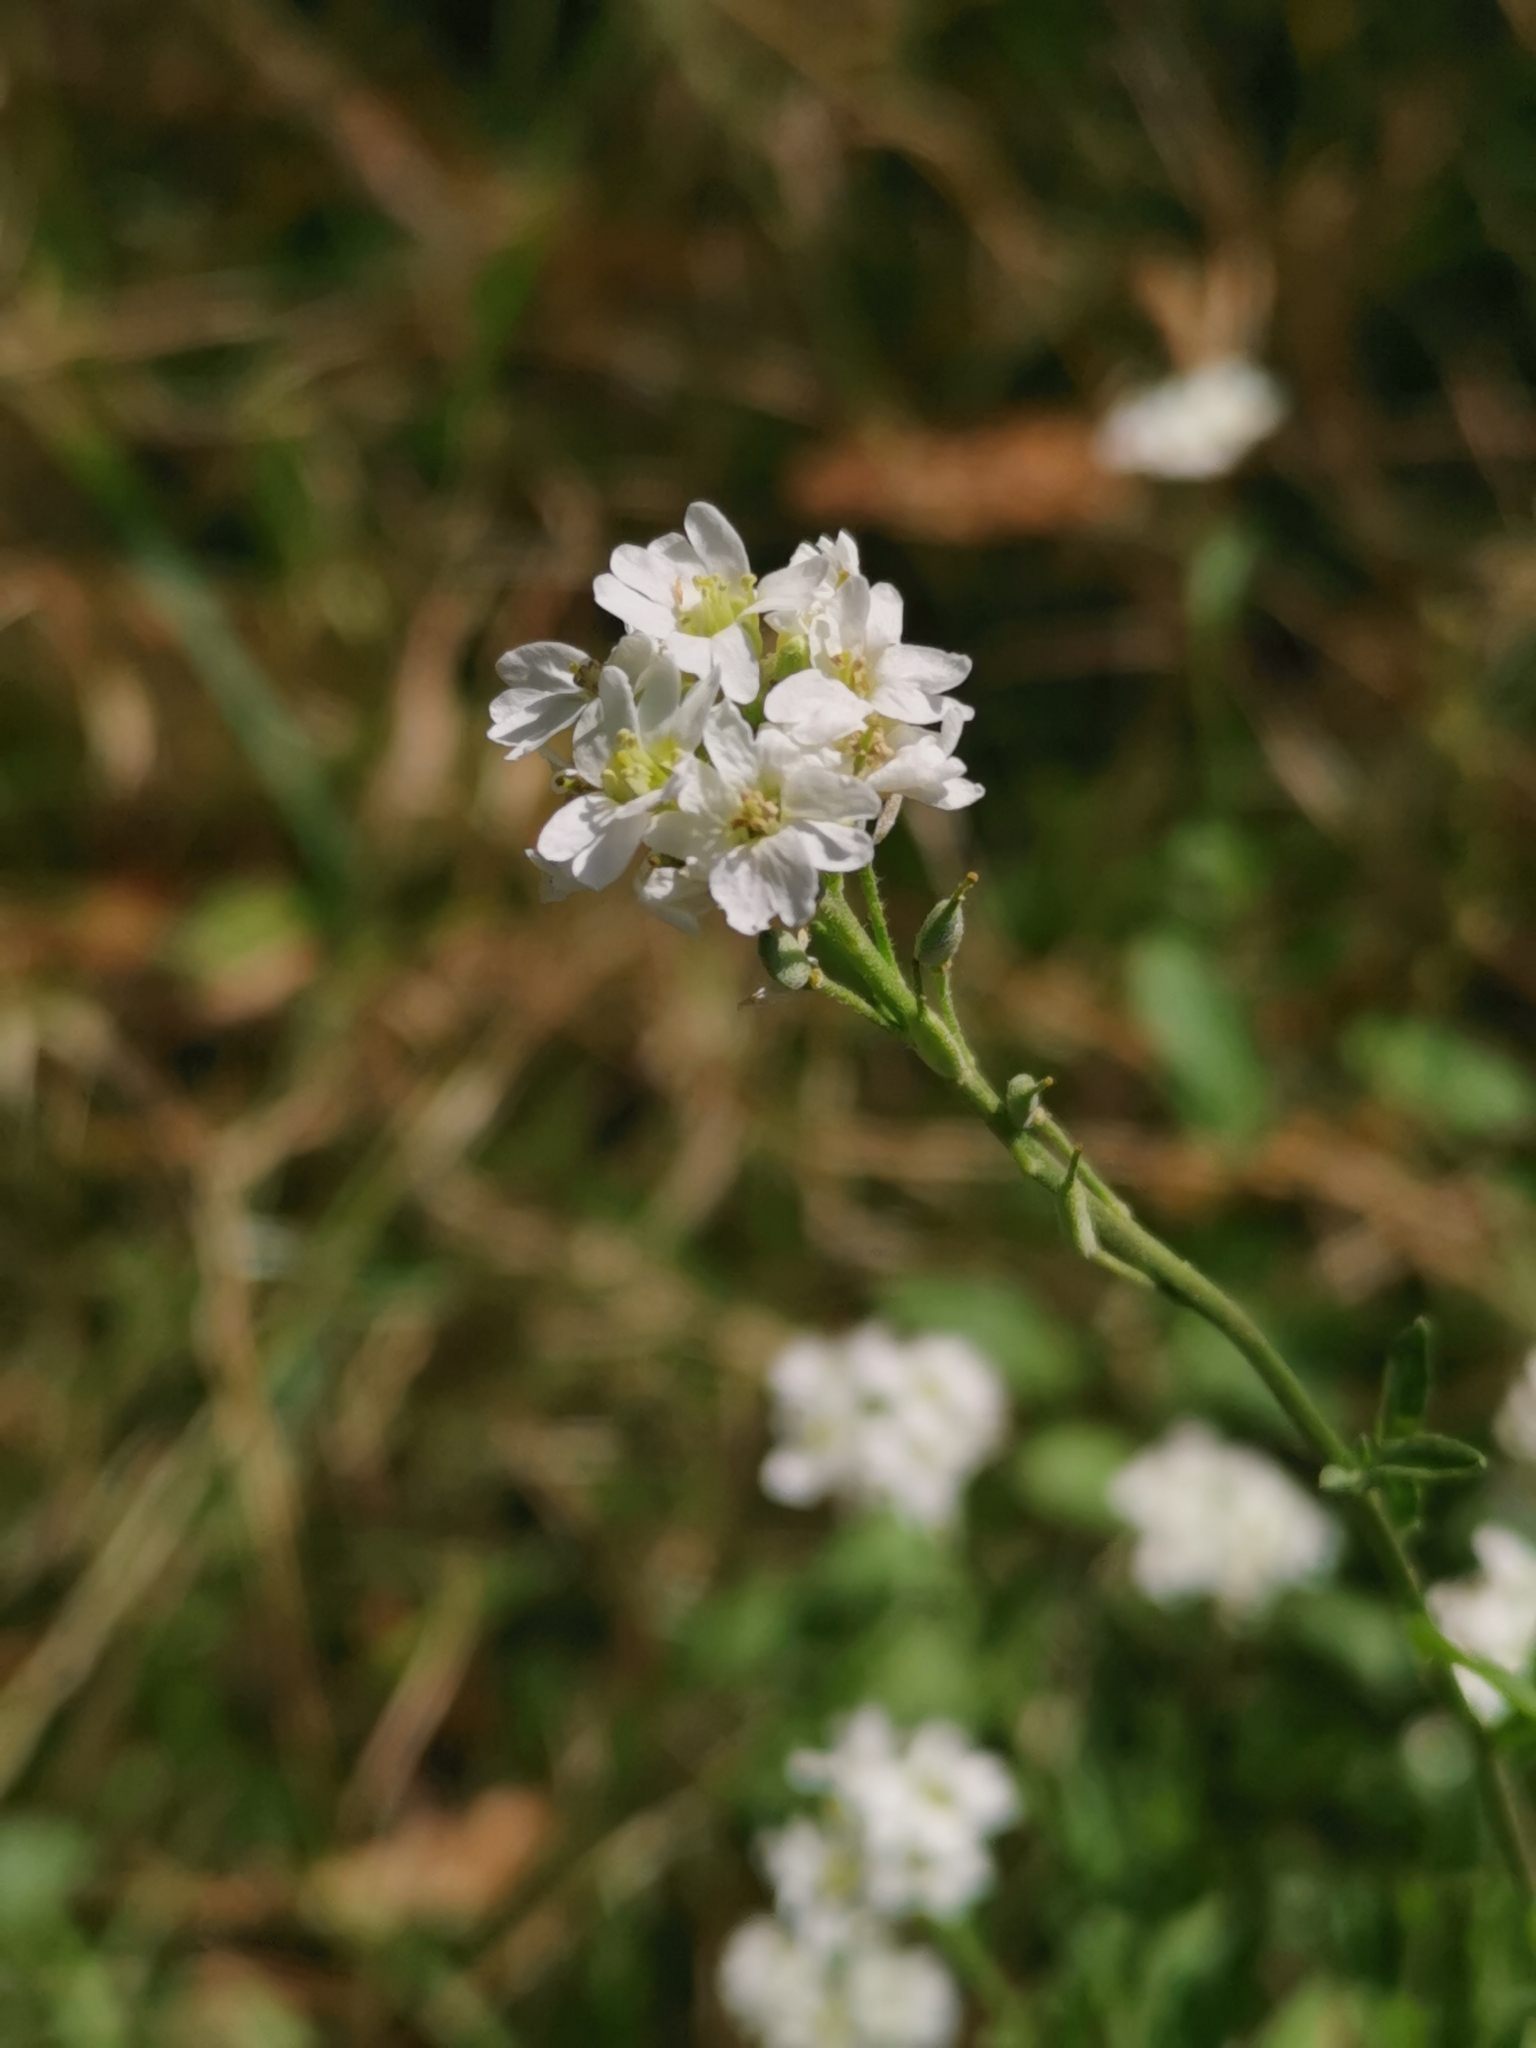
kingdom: Plantae
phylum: Tracheophyta
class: Magnoliopsida
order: Brassicales
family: Brassicaceae
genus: Berteroa
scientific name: Berteroa incana
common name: Hoary alison
